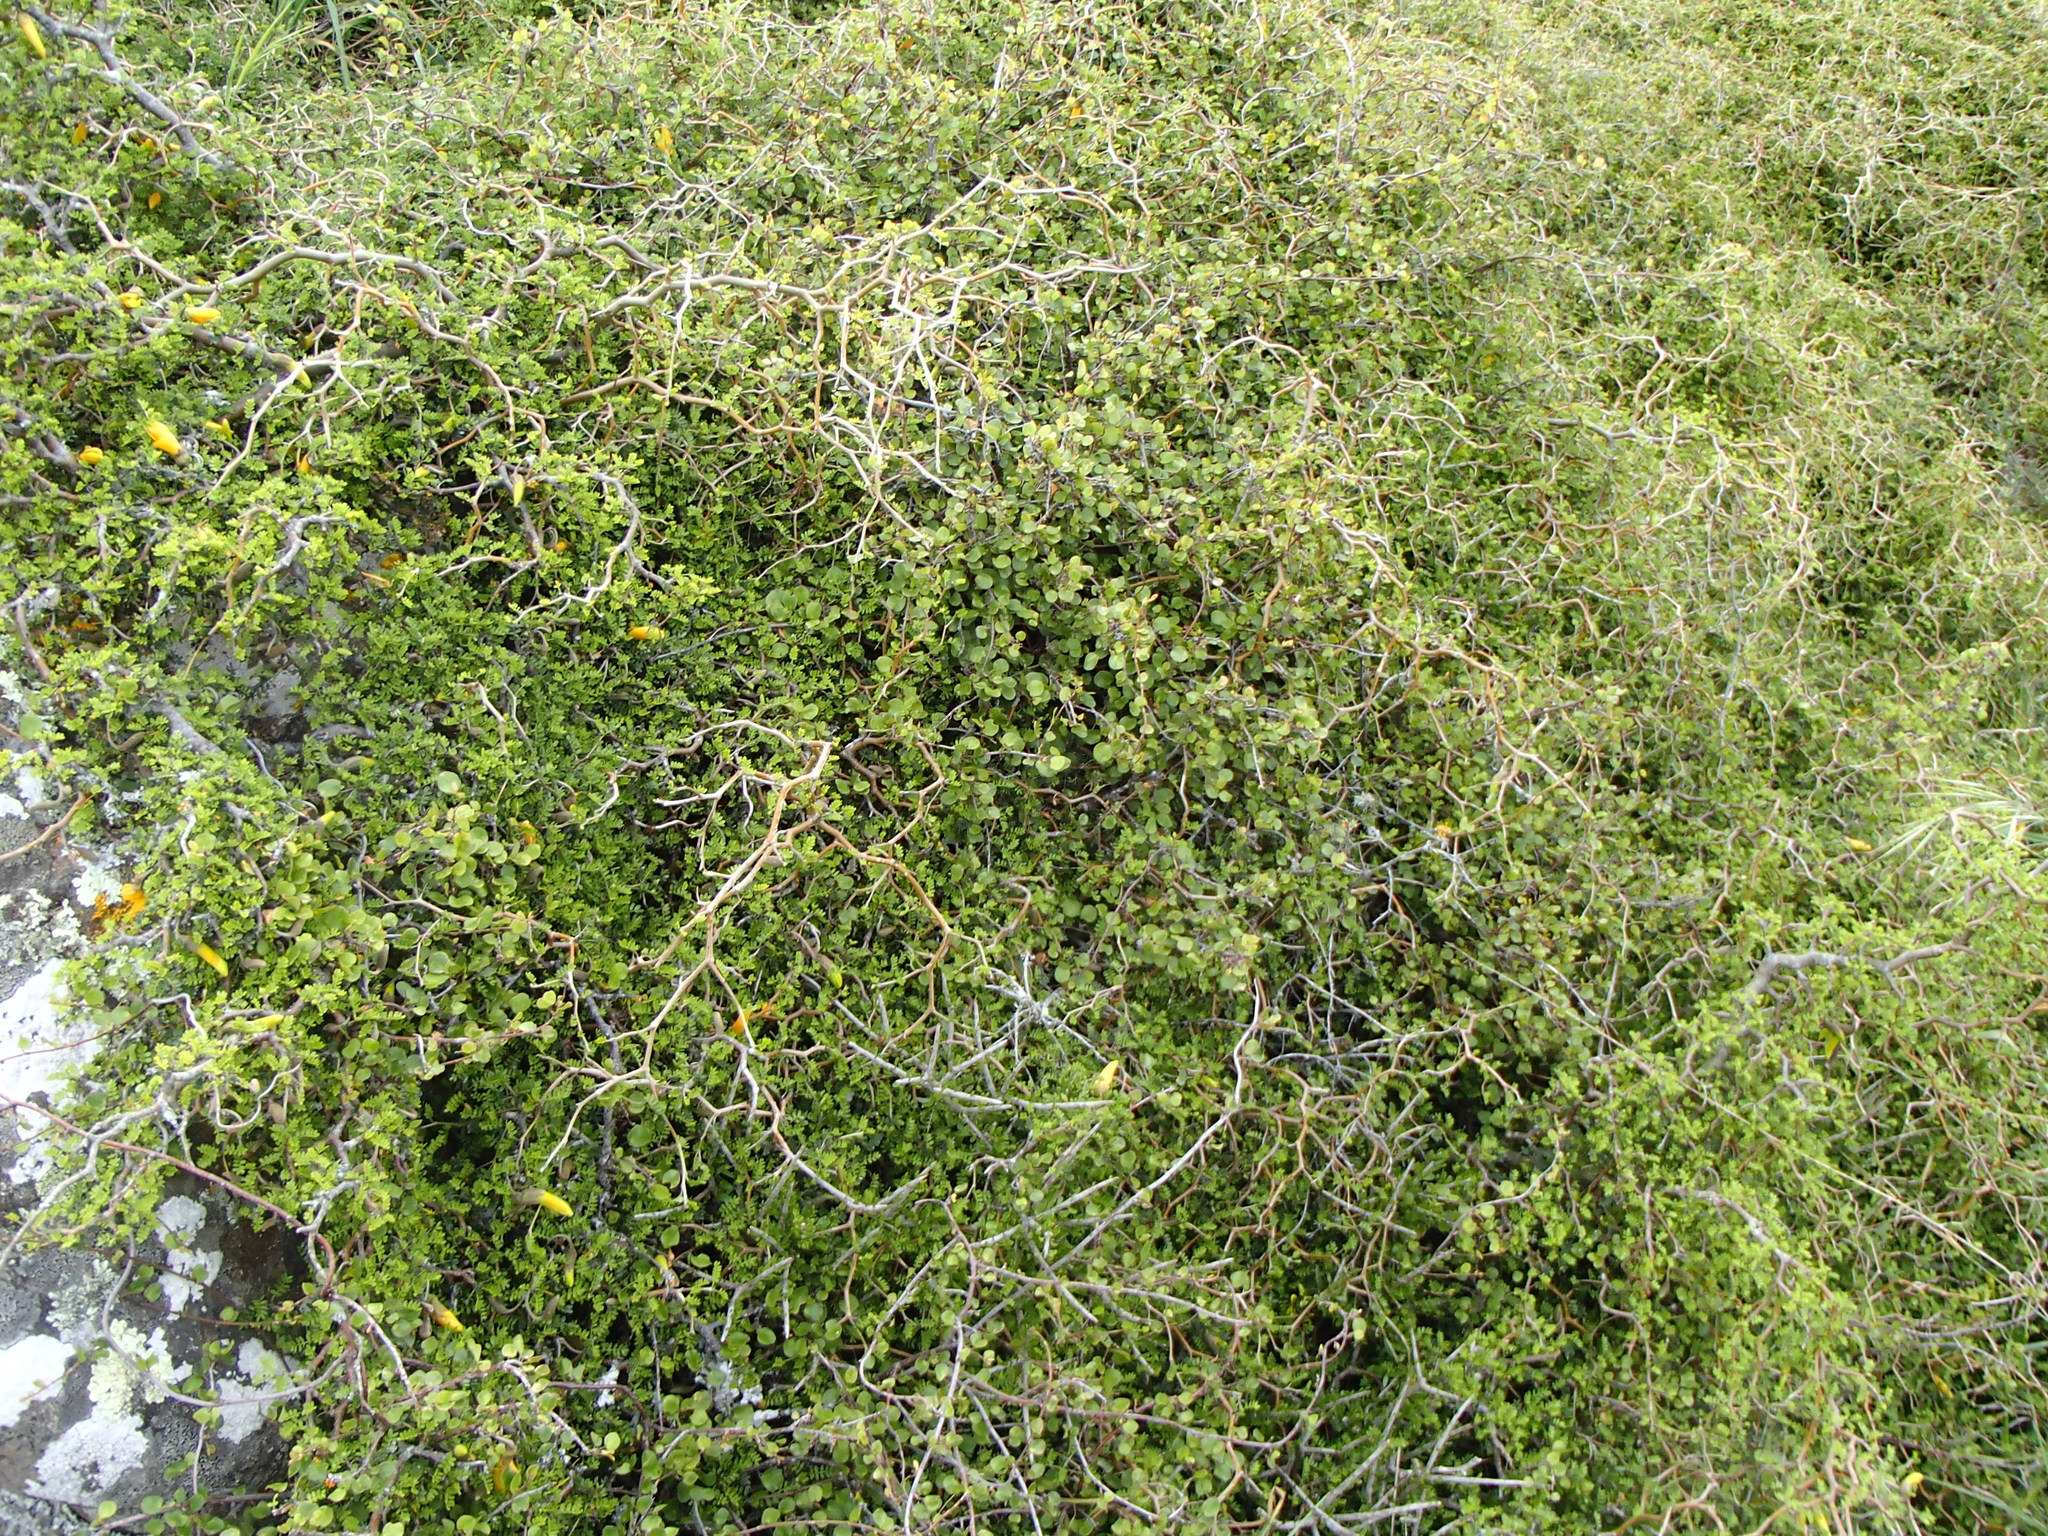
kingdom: Plantae
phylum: Tracheophyta
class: Magnoliopsida
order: Fabales
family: Fabaceae
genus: Sophora
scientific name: Sophora prostrata
